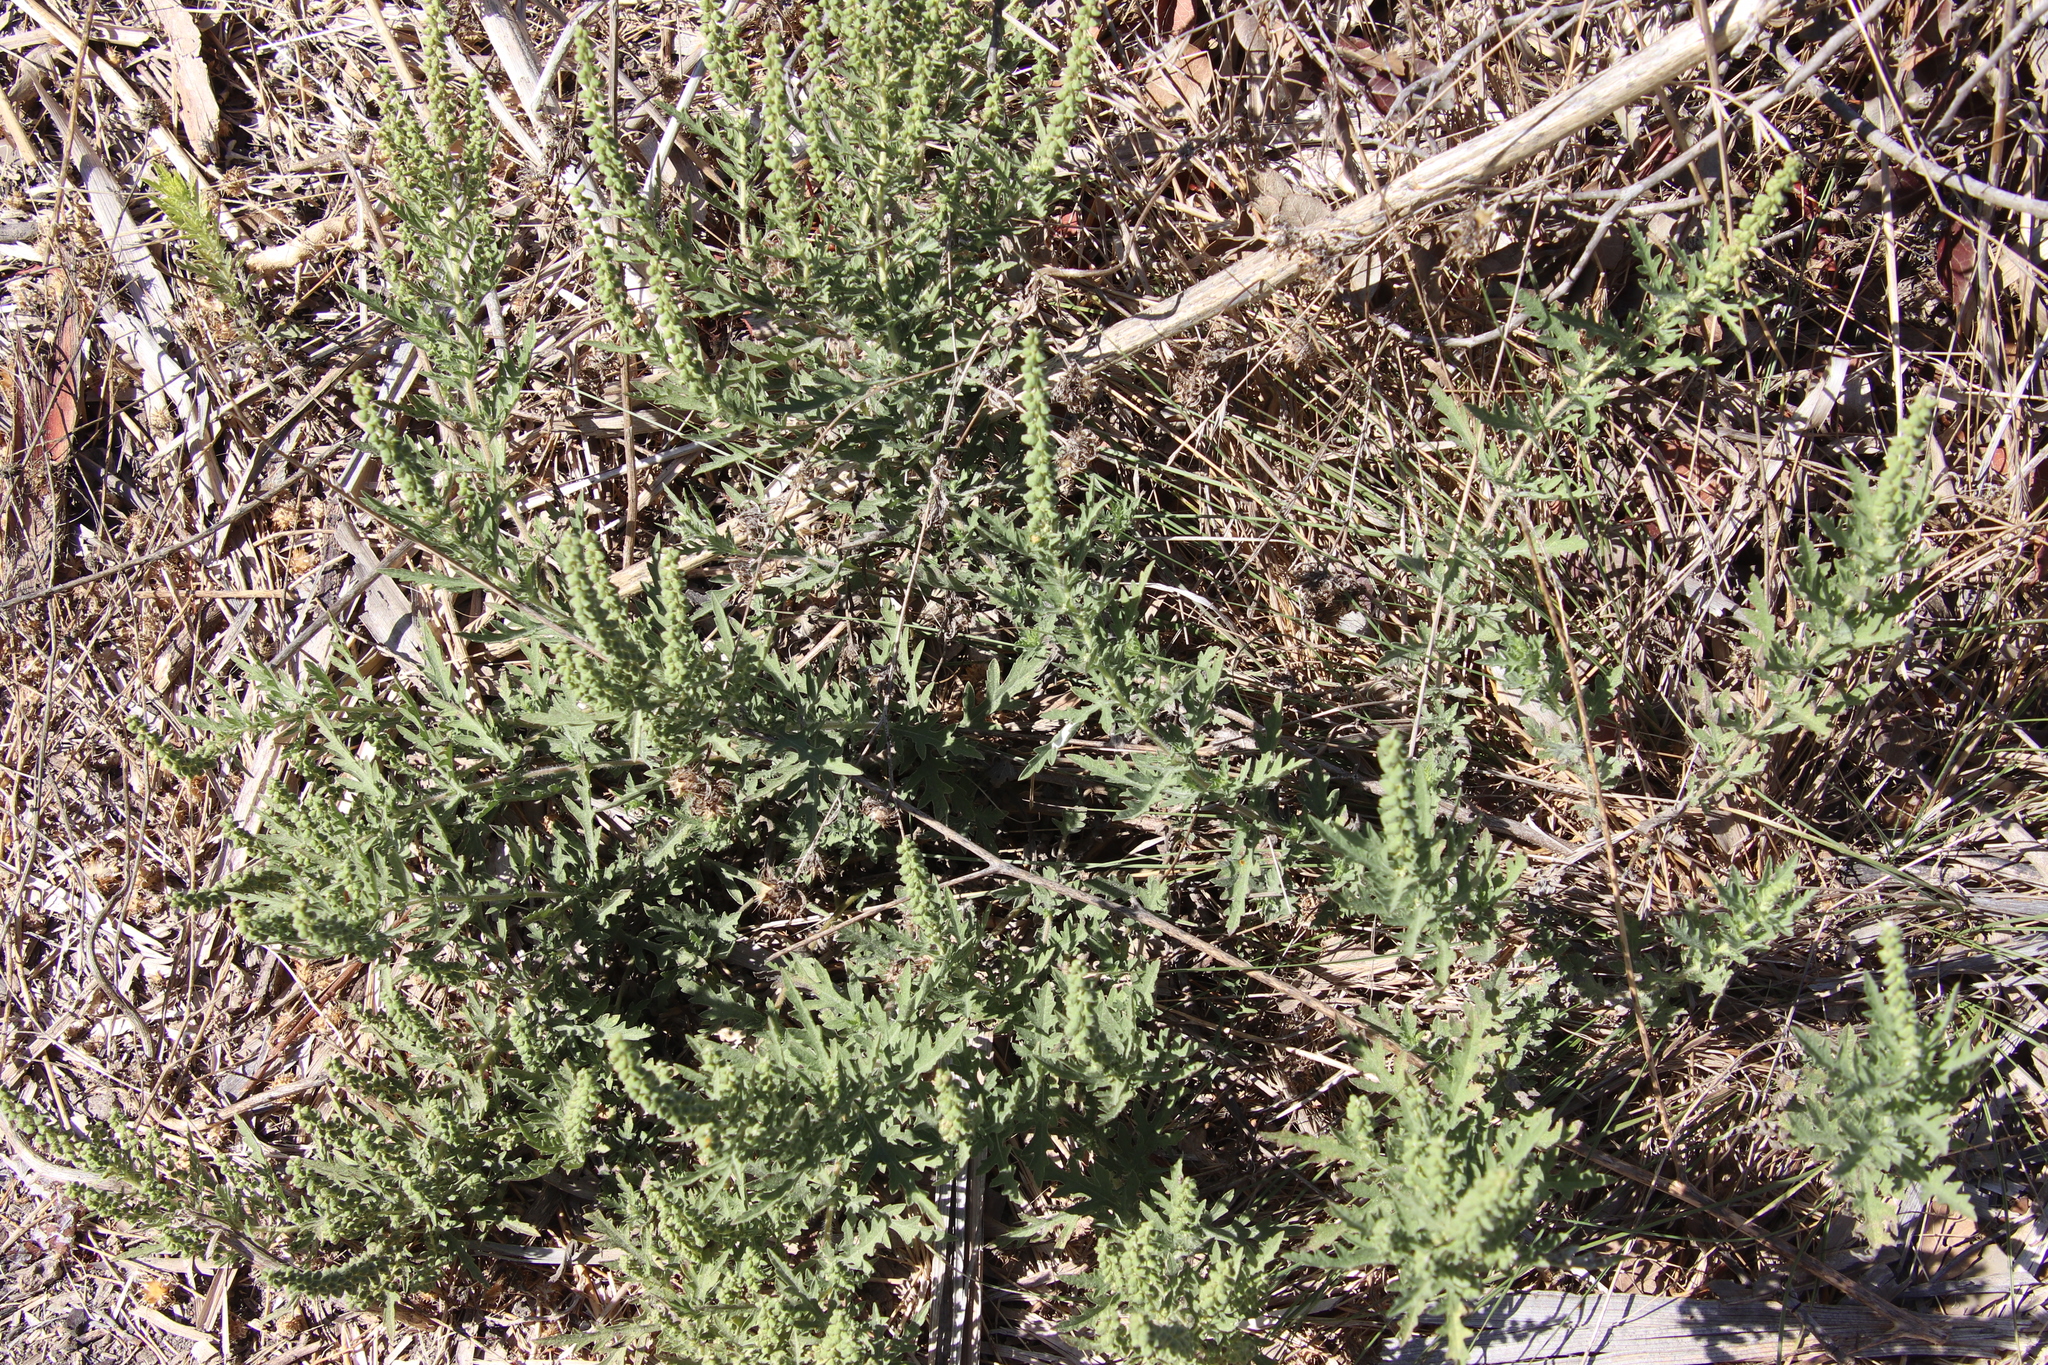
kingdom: Plantae
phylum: Tracheophyta
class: Magnoliopsida
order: Asterales
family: Asteraceae
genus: Ambrosia
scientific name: Ambrosia psilostachya
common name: Perennial ragweed
